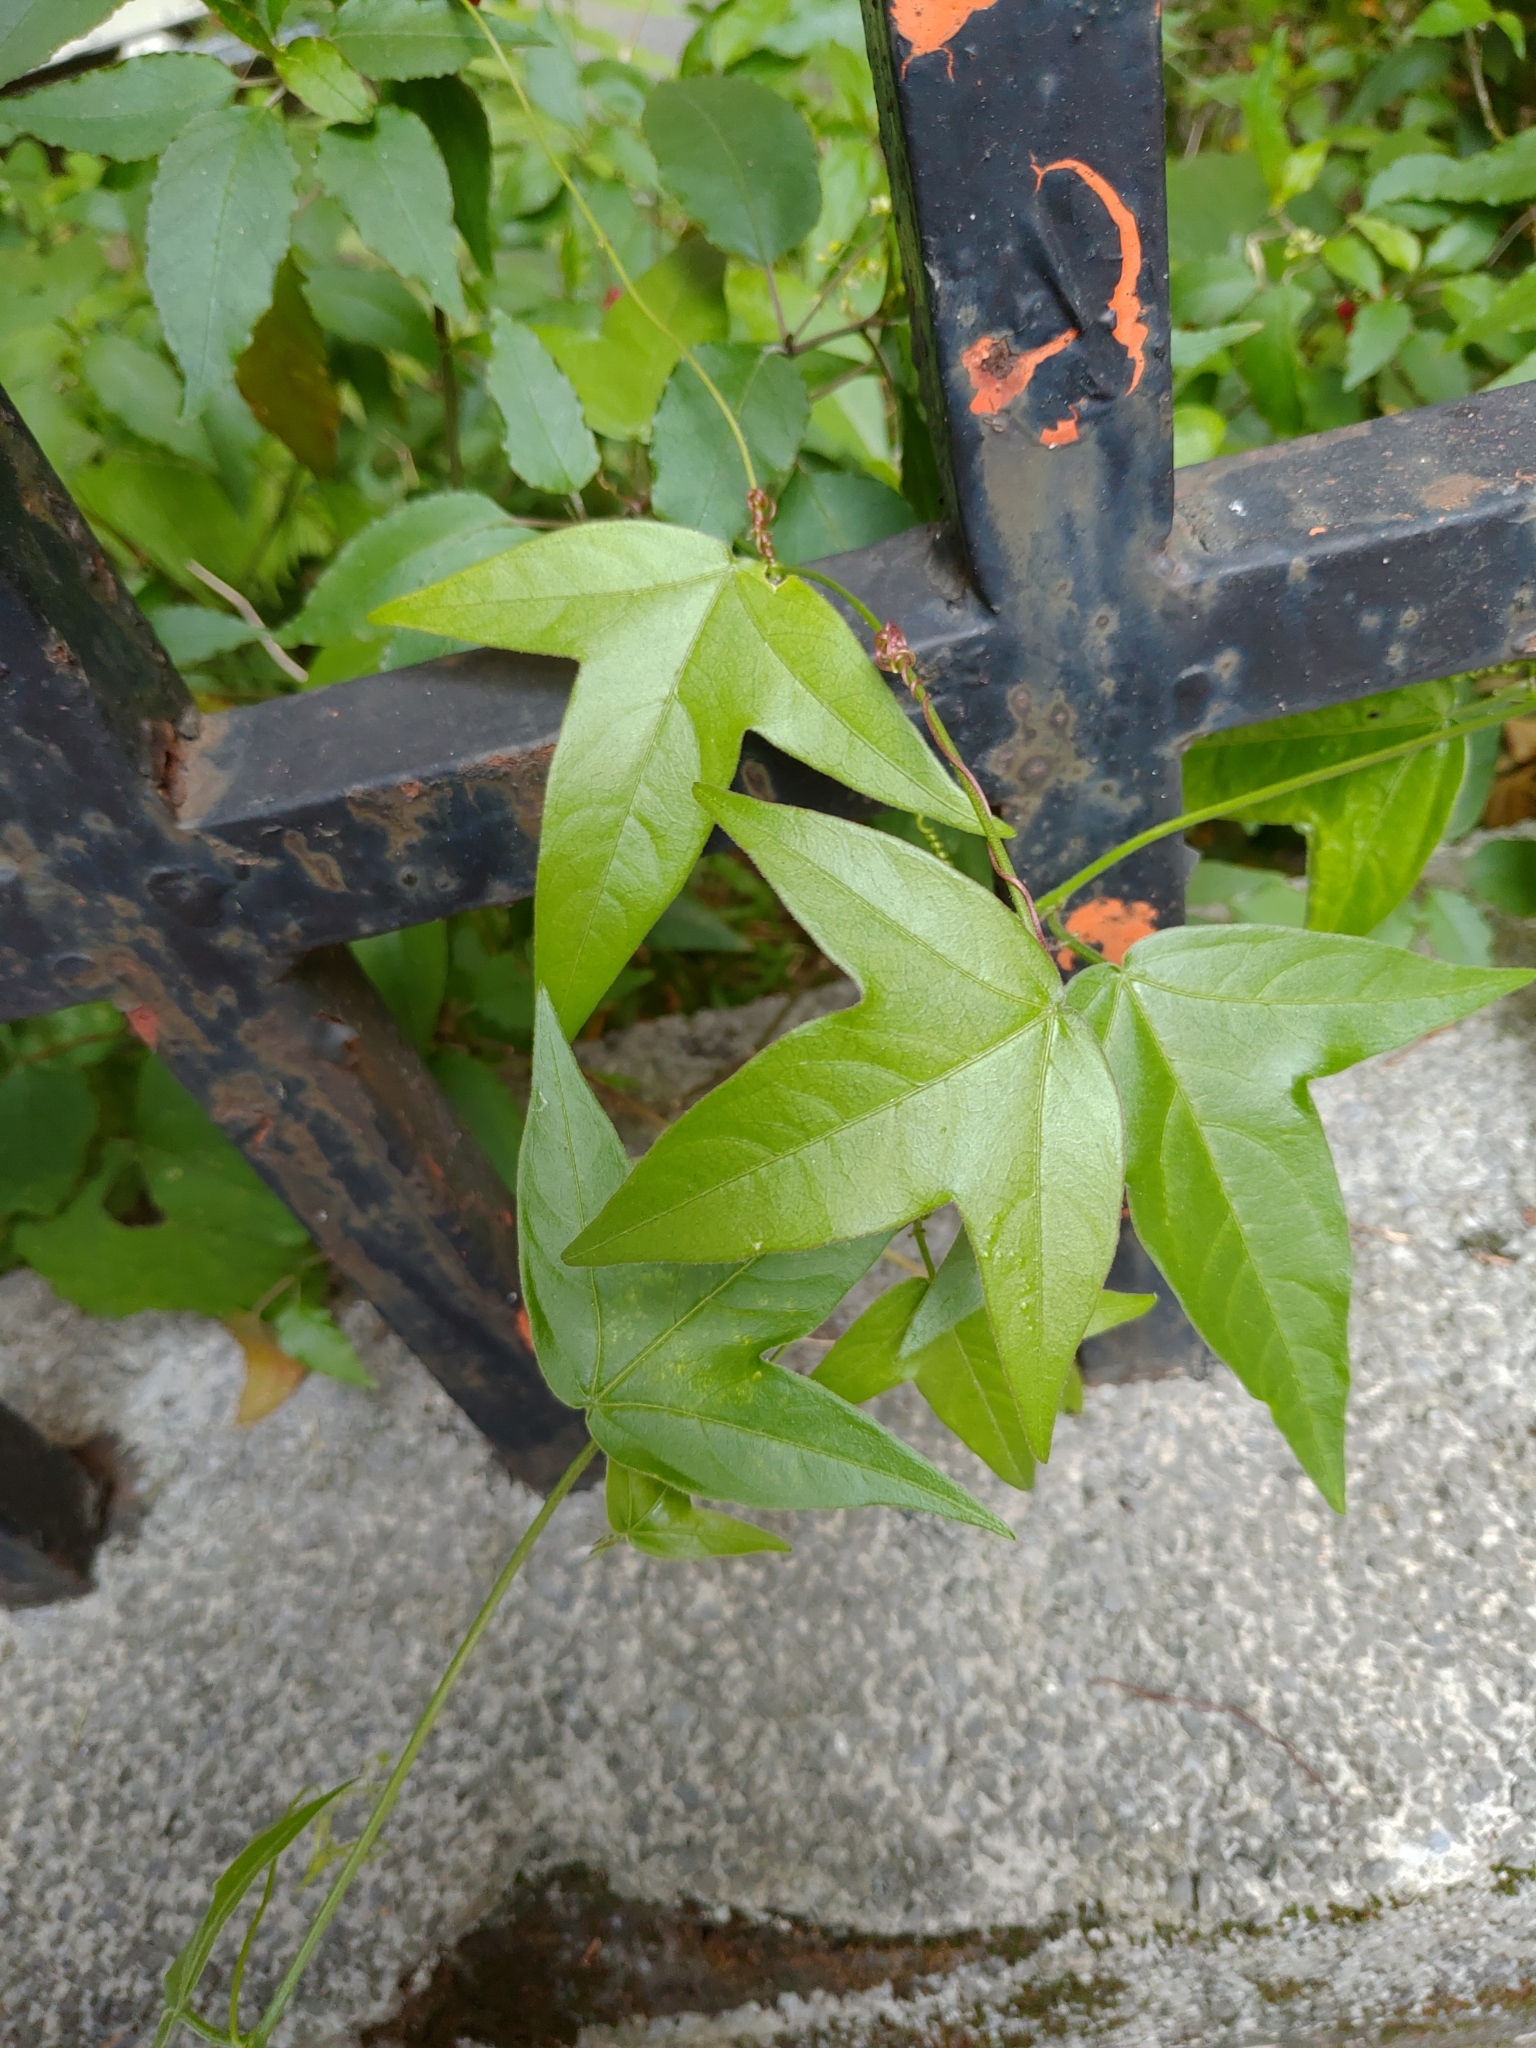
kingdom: Plantae
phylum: Tracheophyta
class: Magnoliopsida
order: Malpighiales
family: Passifloraceae
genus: Passiflora
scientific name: Passiflora suberosa
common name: Wild passionfruit
